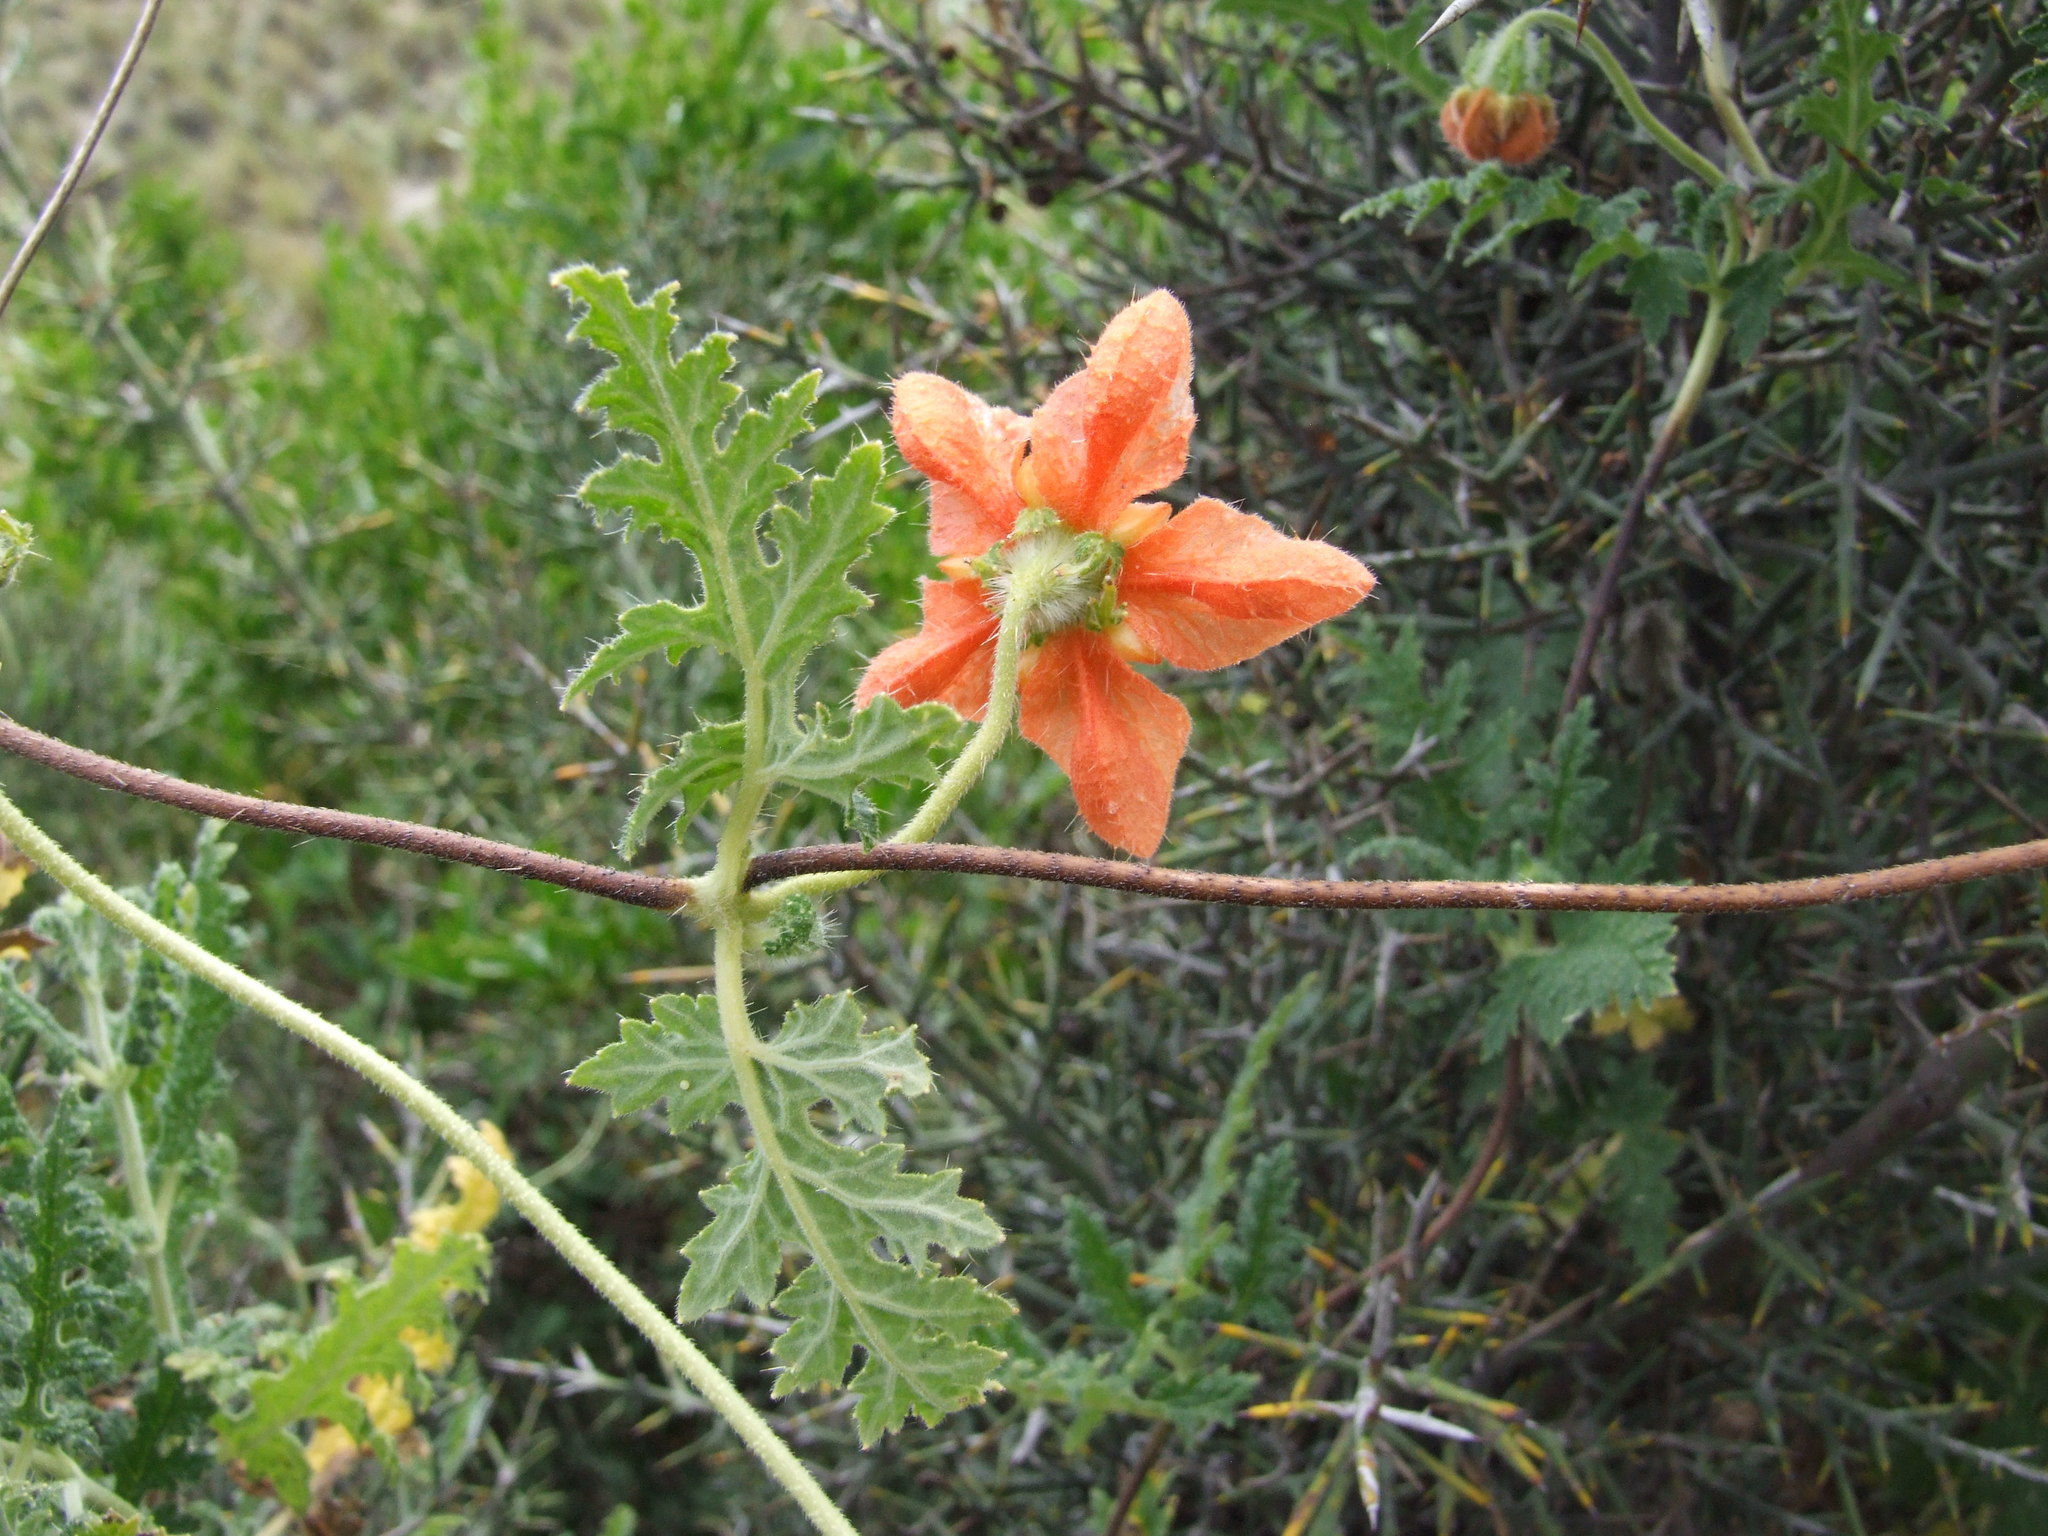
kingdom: Plantae
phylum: Tracheophyta
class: Magnoliopsida
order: Cornales
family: Loasaceae
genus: Caiophora
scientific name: Caiophora cirsiifolia
